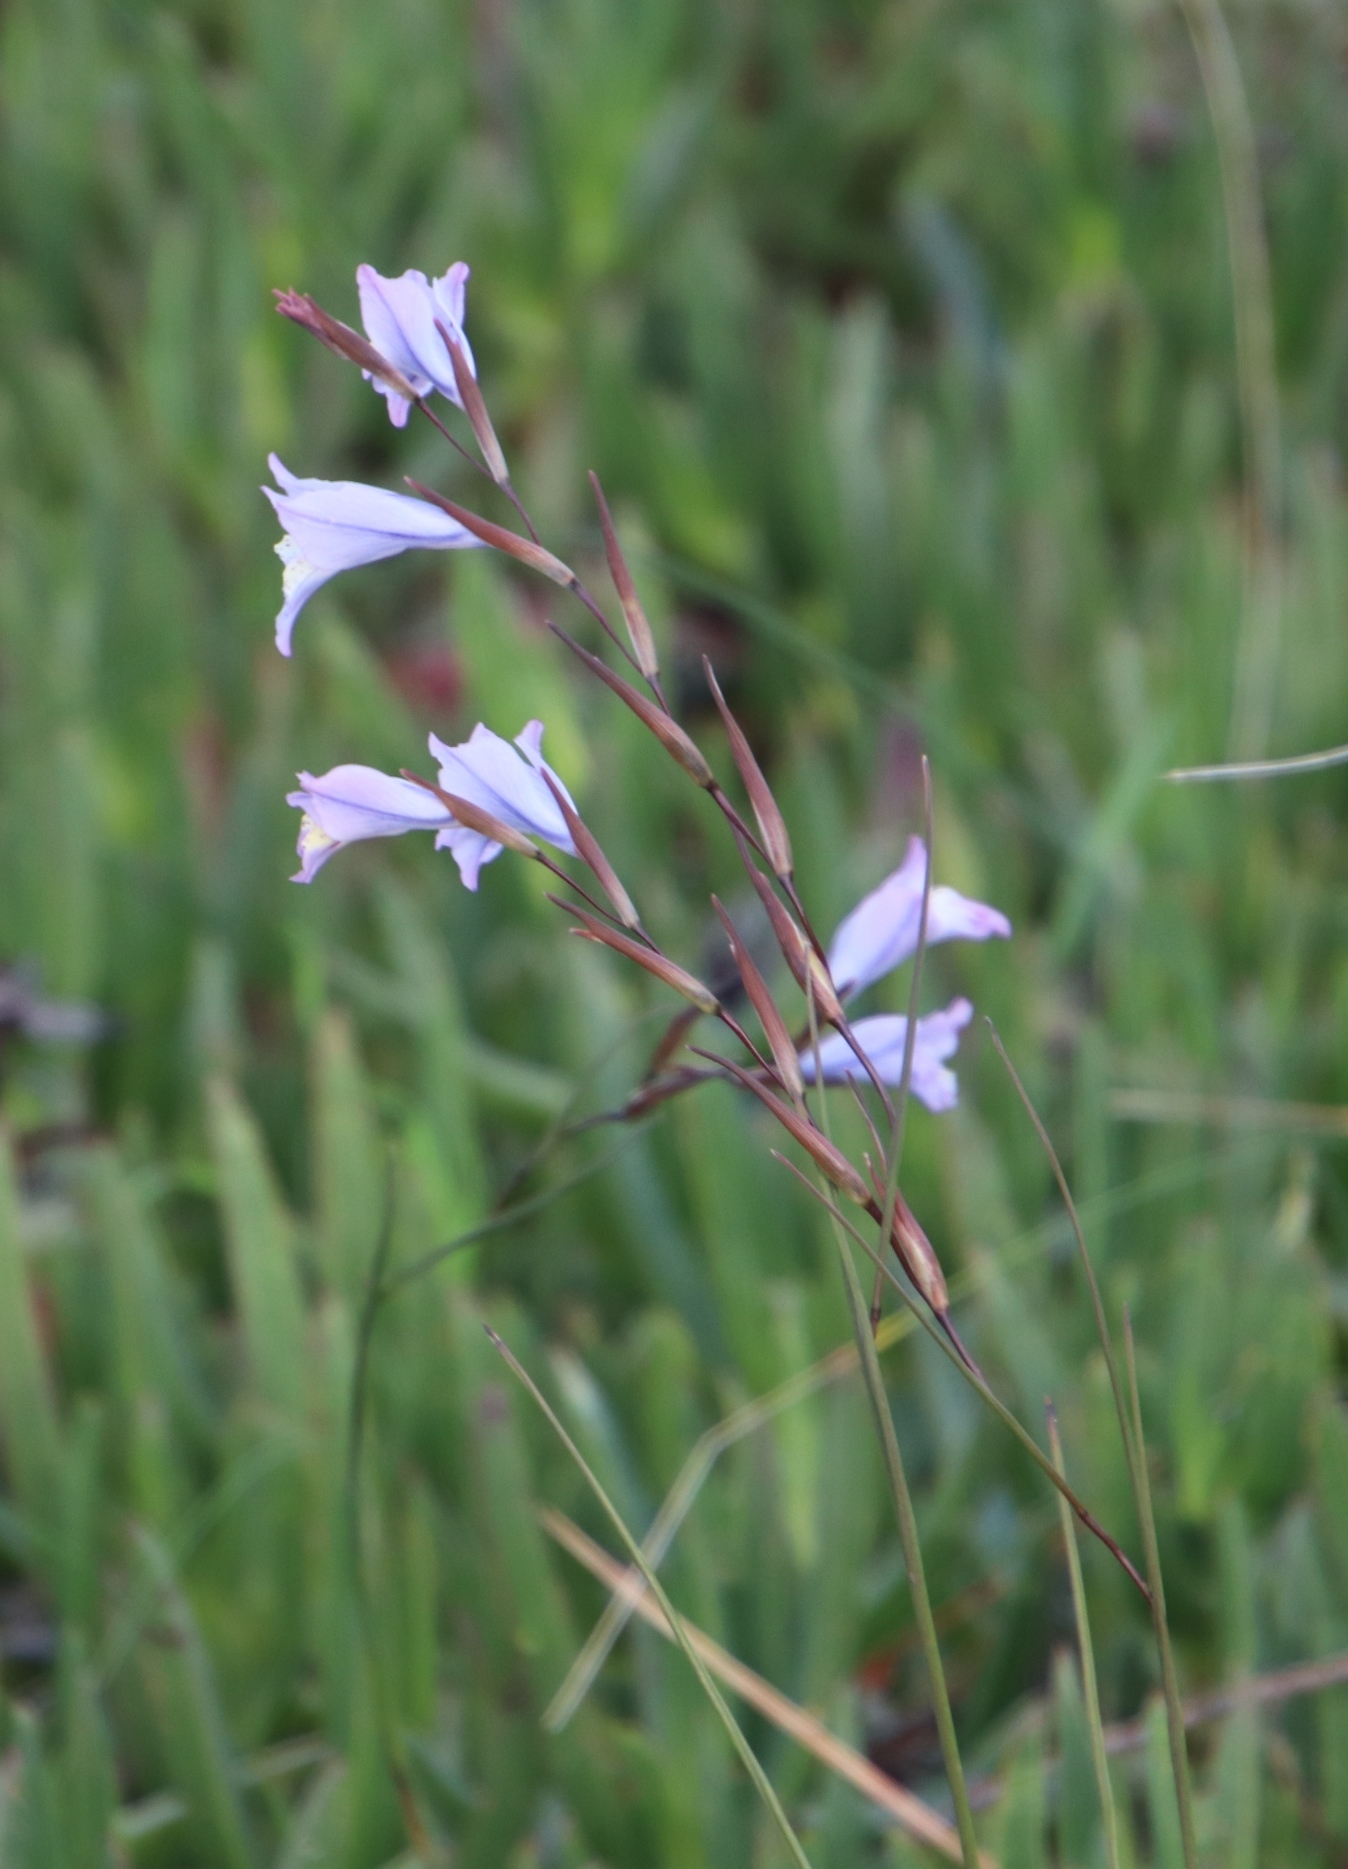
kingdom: Plantae
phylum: Tracheophyta
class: Liliopsida
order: Asparagales
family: Iridaceae
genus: Gladiolus
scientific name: Gladiolus gracilis
